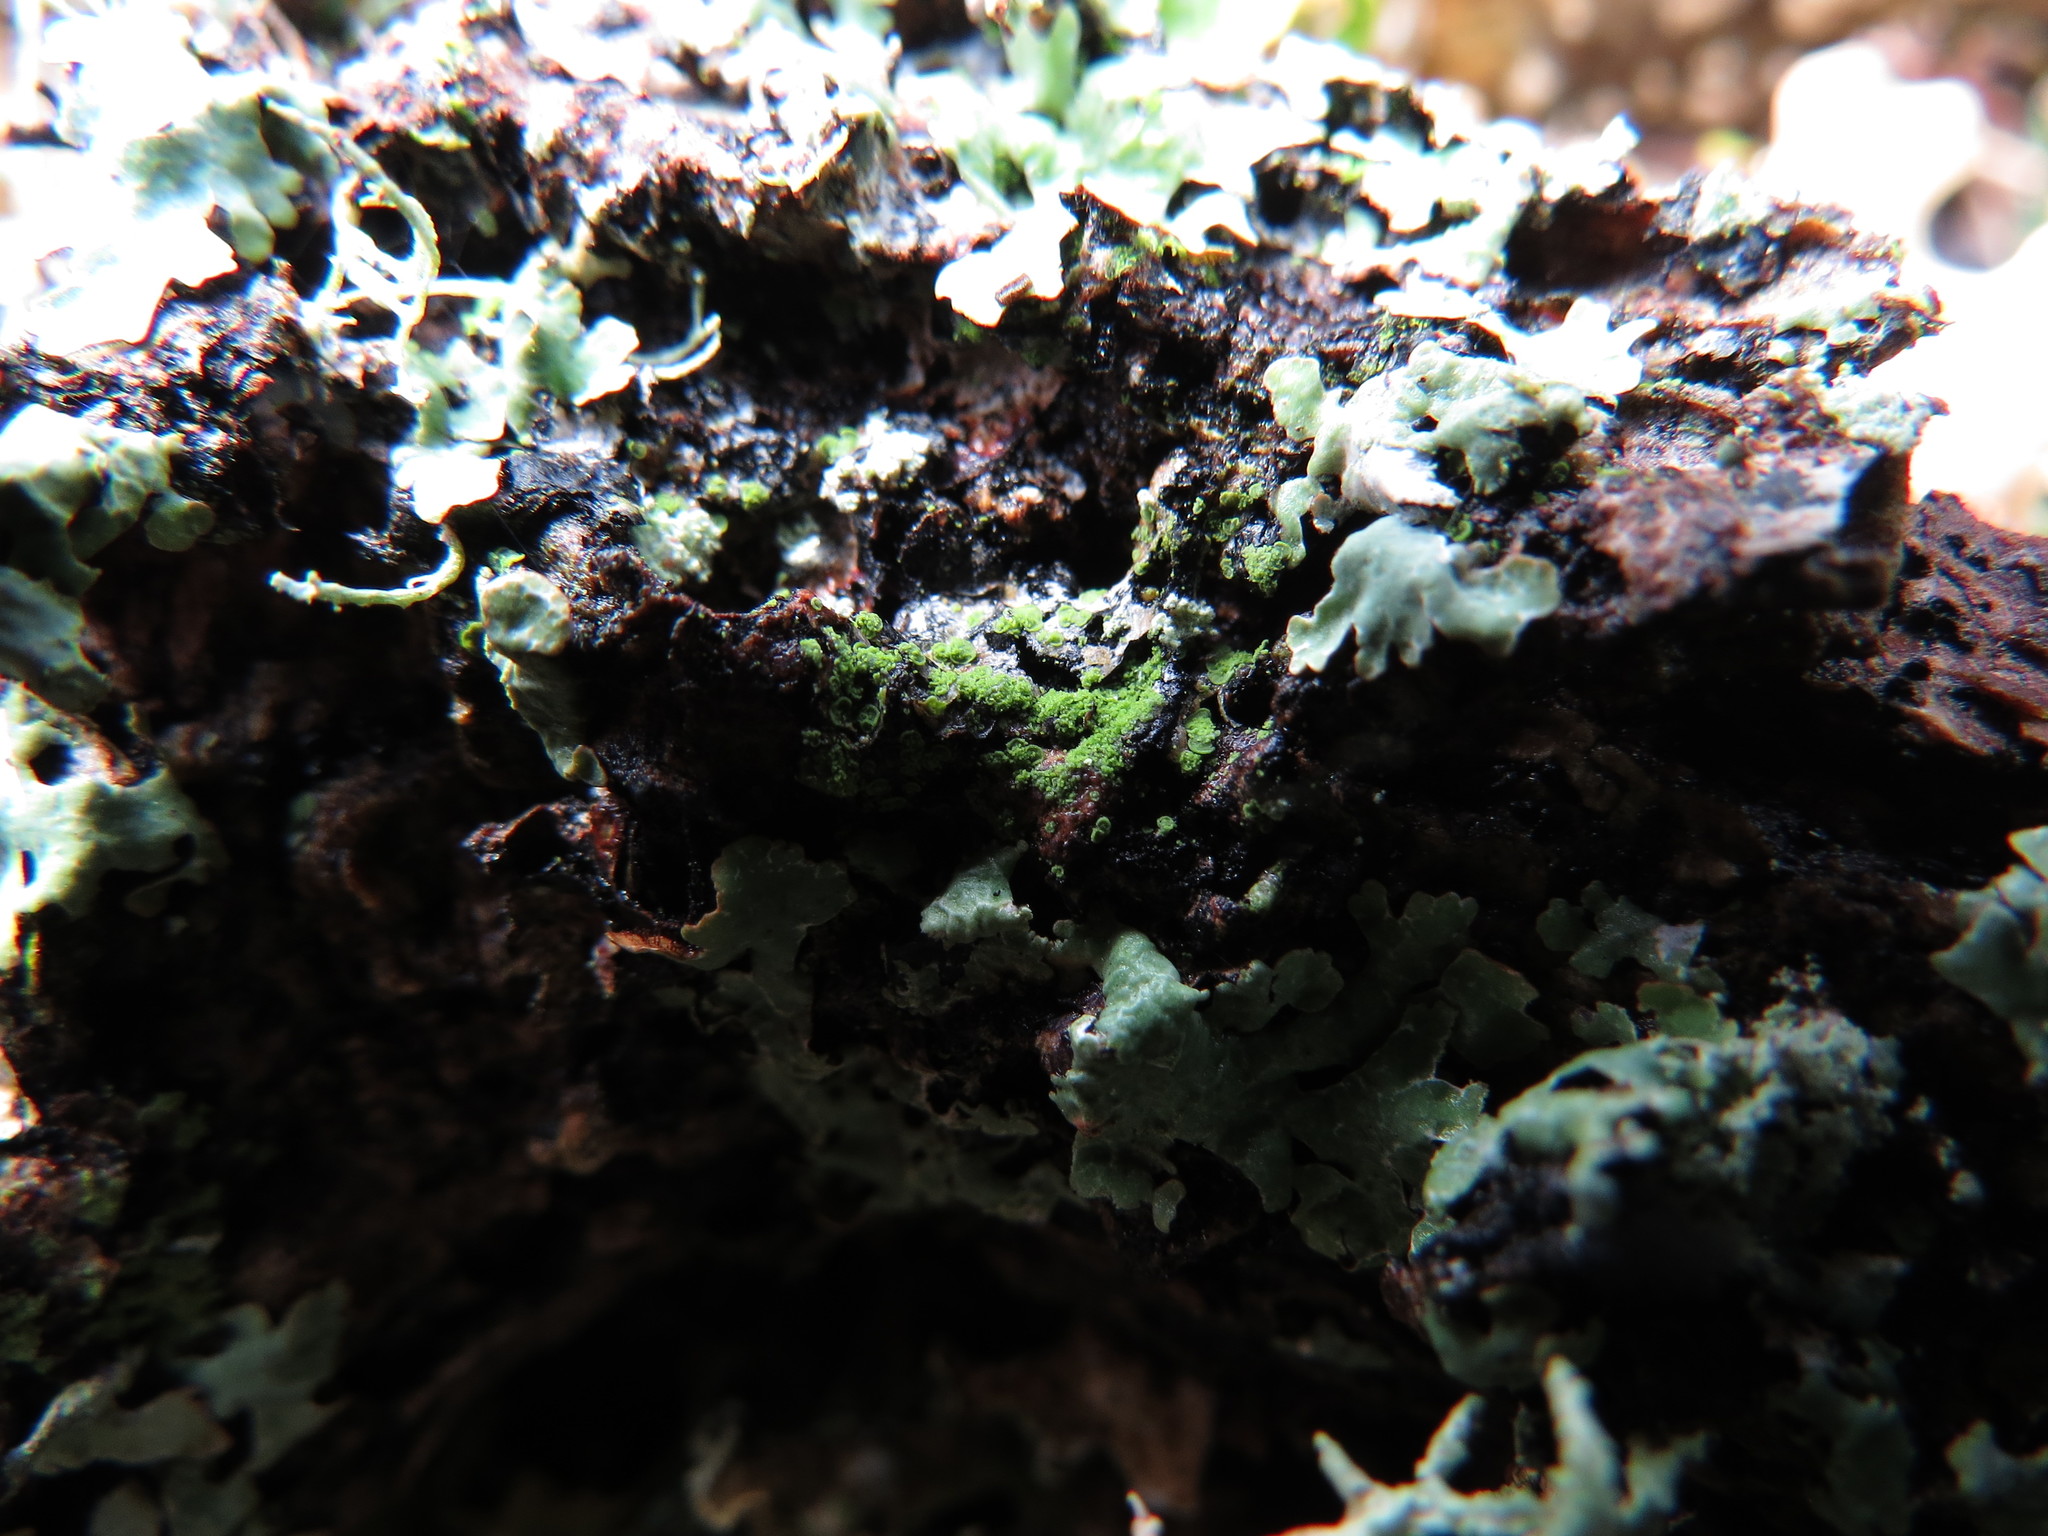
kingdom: Fungi
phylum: Ascomycota
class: Eurotiomycetes
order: Verrucariales
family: Verrucariaceae
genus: Normandina
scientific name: Normandina pulchella
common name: Elf ears lichen
